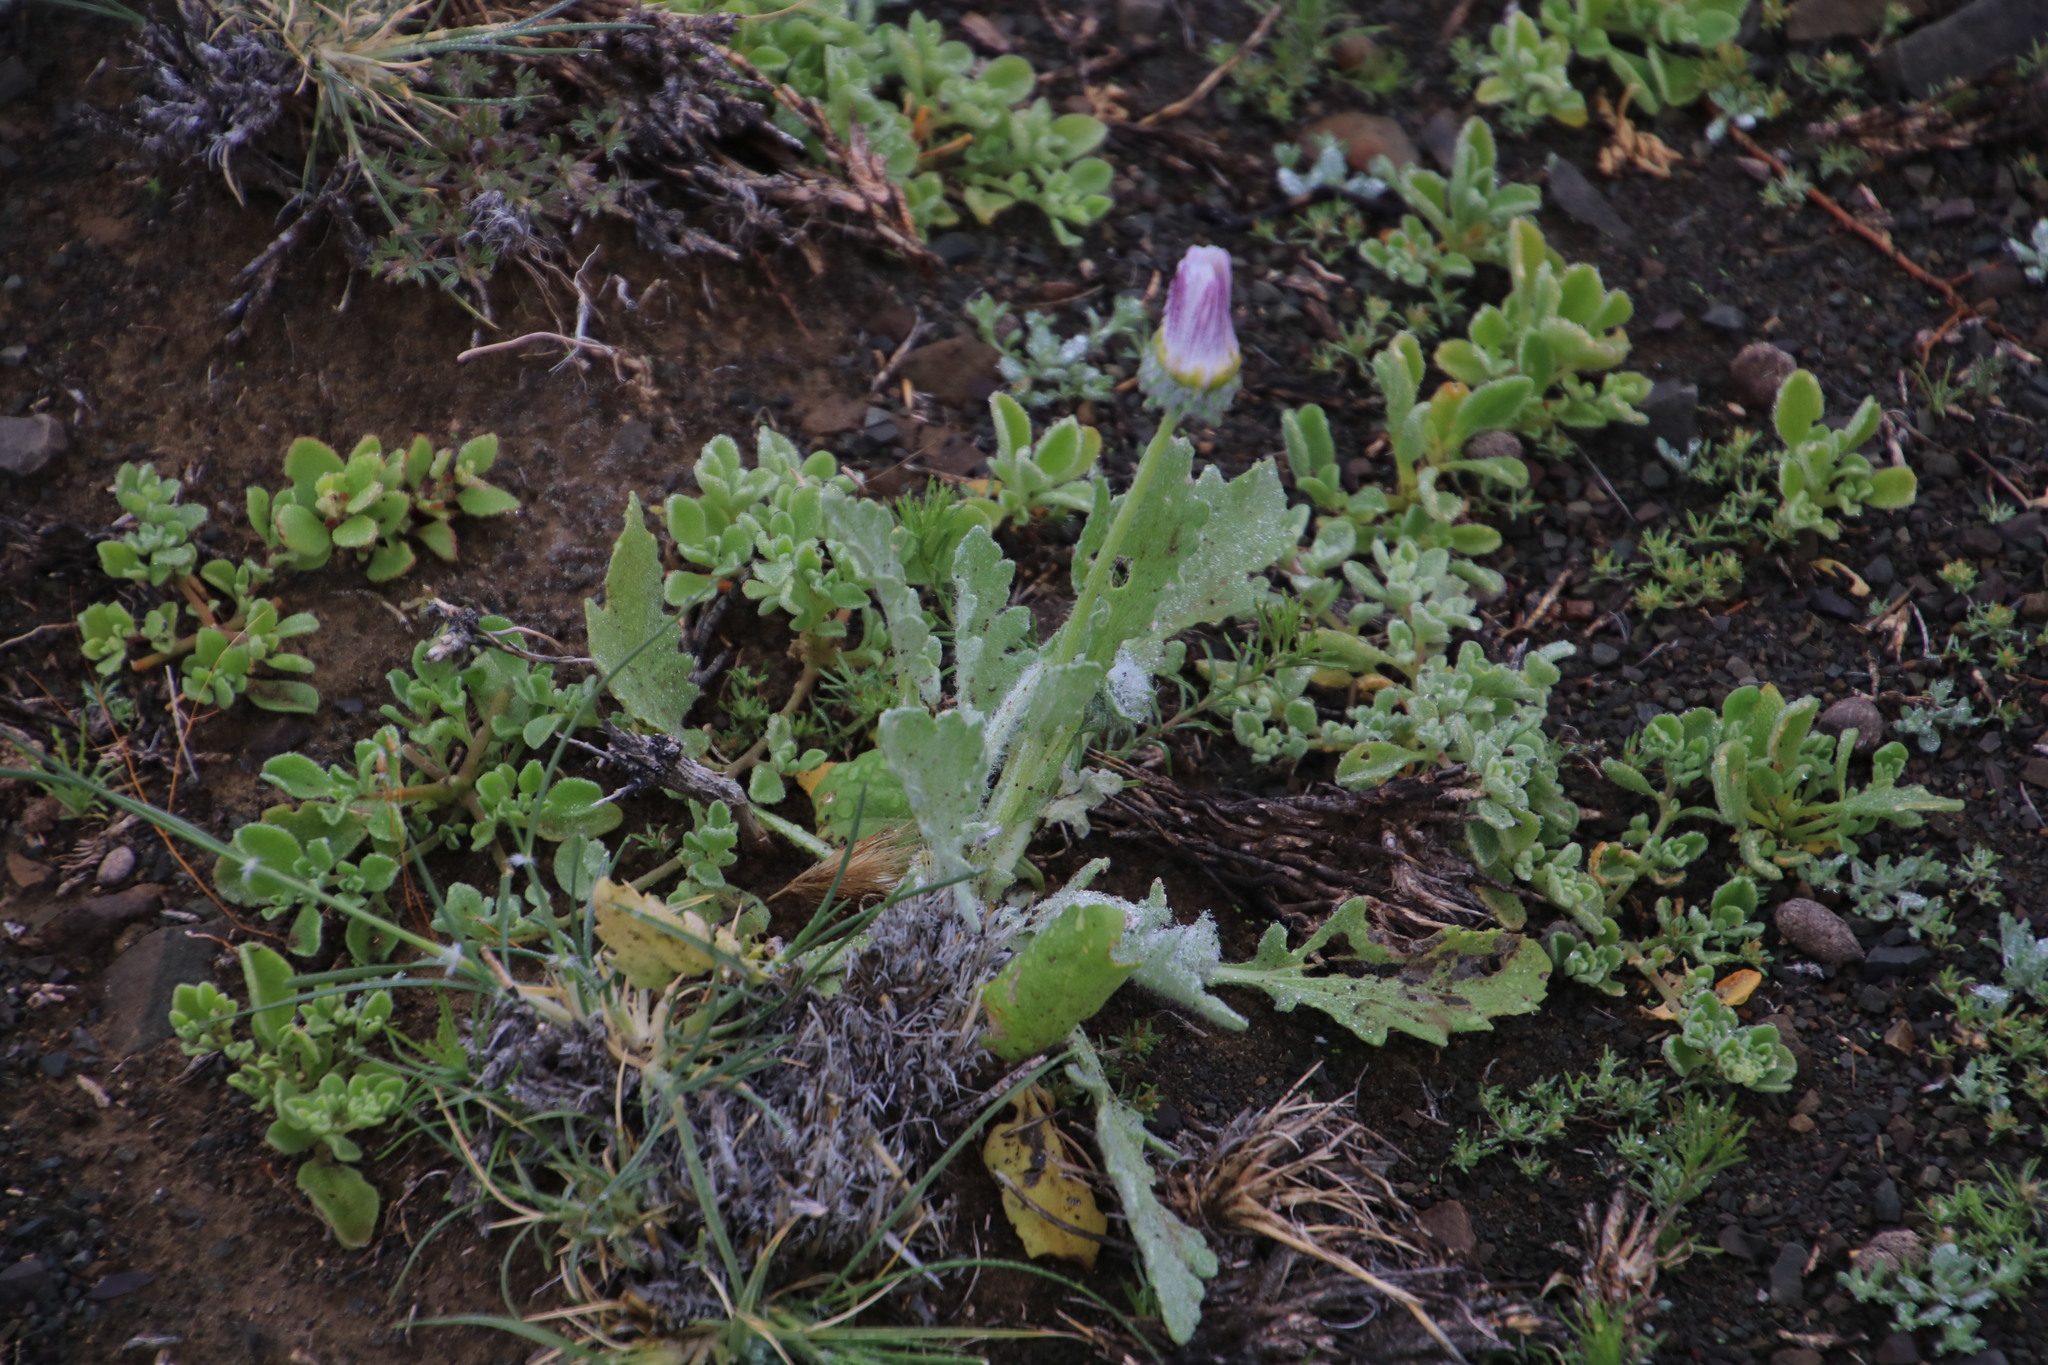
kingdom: Plantae
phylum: Tracheophyta
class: Magnoliopsida
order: Asterales
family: Asteraceae
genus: Arctotis
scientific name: Arctotis leiocarpa
